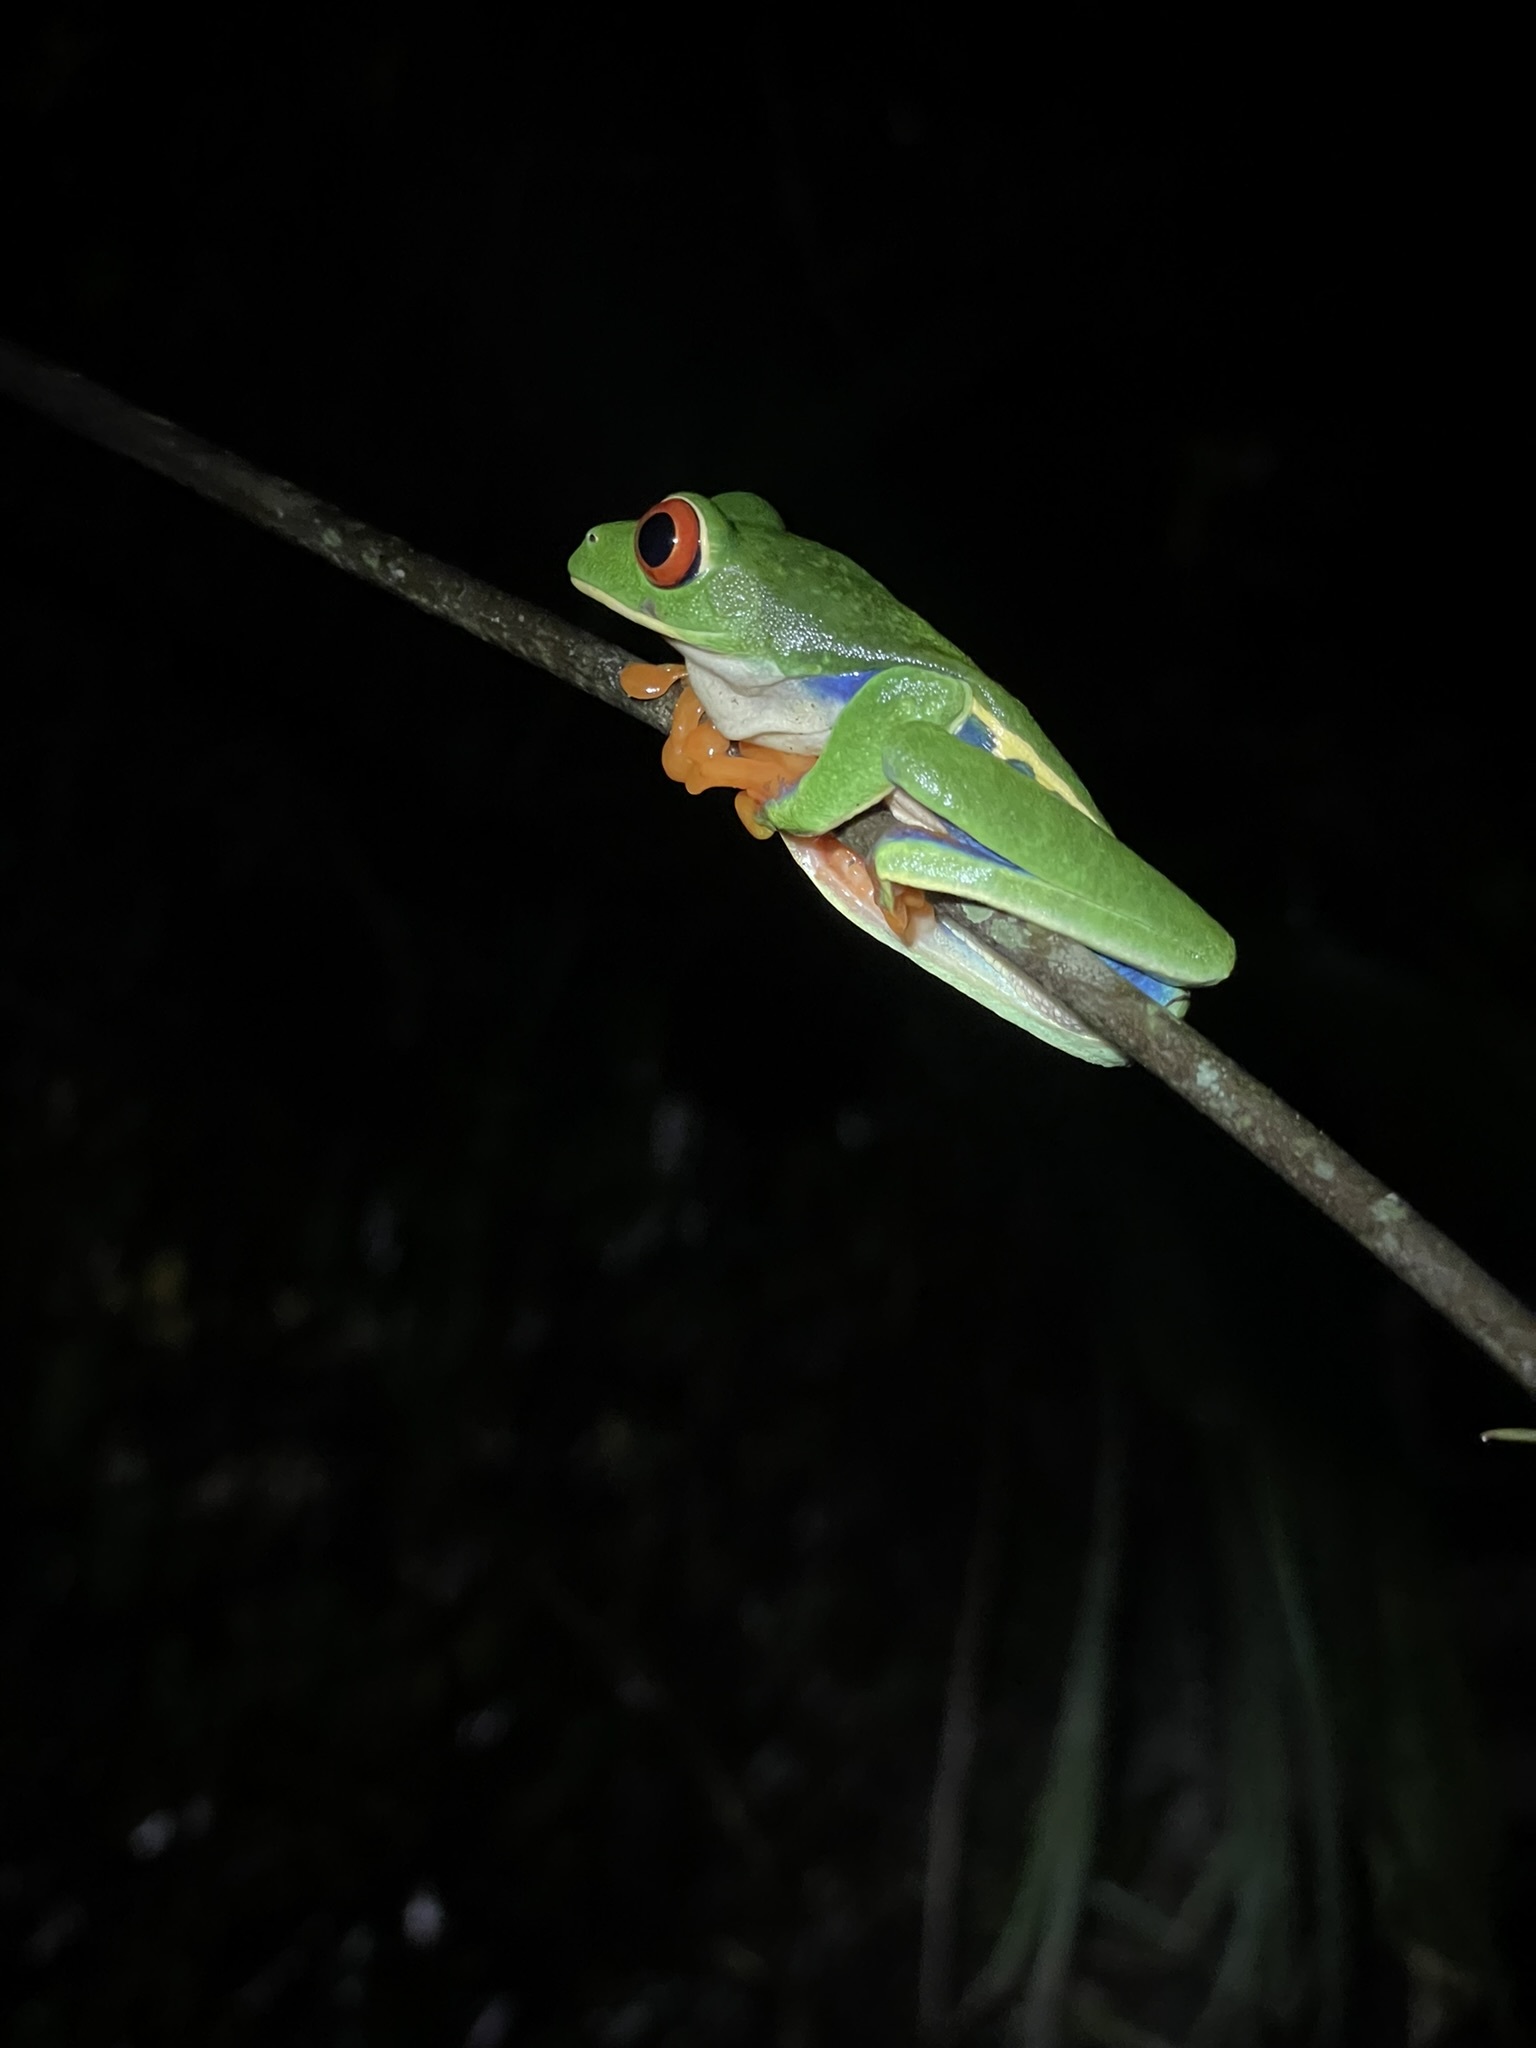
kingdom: Animalia
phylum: Chordata
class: Amphibia
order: Anura
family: Phyllomedusidae
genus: Agalychnis
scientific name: Agalychnis callidryas
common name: Red-eyed treefrog
